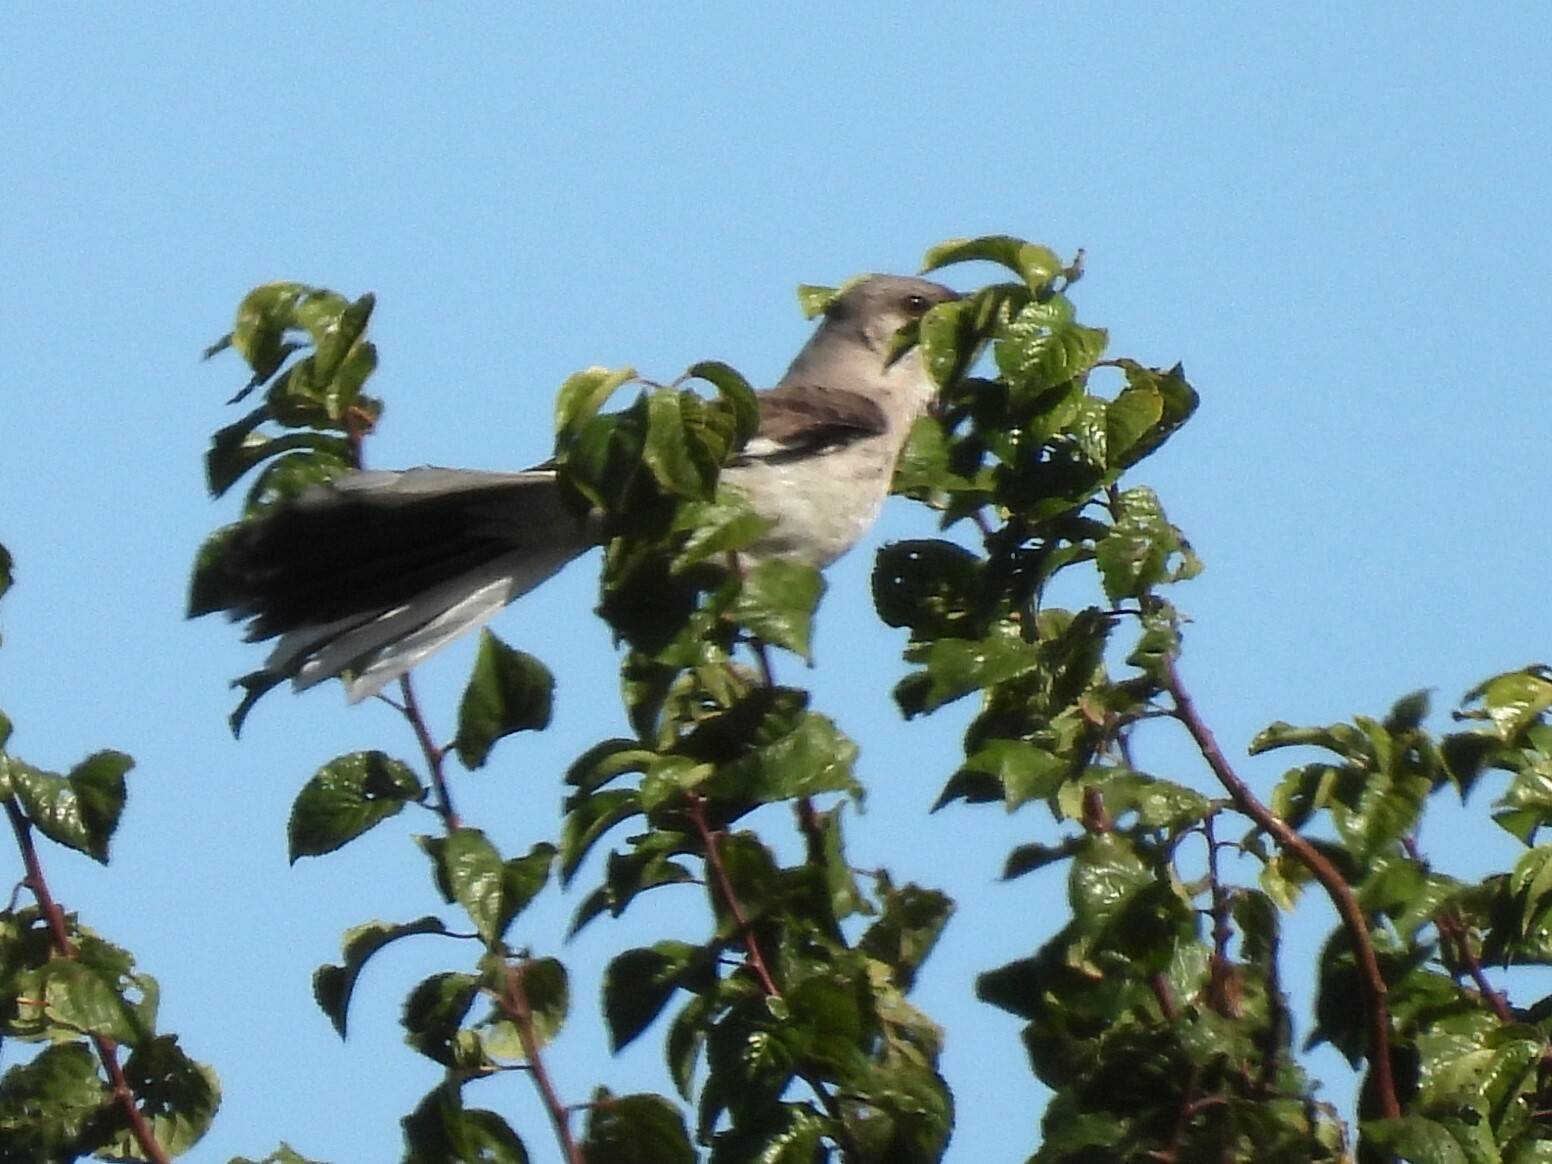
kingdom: Animalia
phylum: Chordata
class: Aves
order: Passeriformes
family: Mimidae
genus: Mimus
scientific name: Mimus polyglottos
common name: Northern mockingbird
